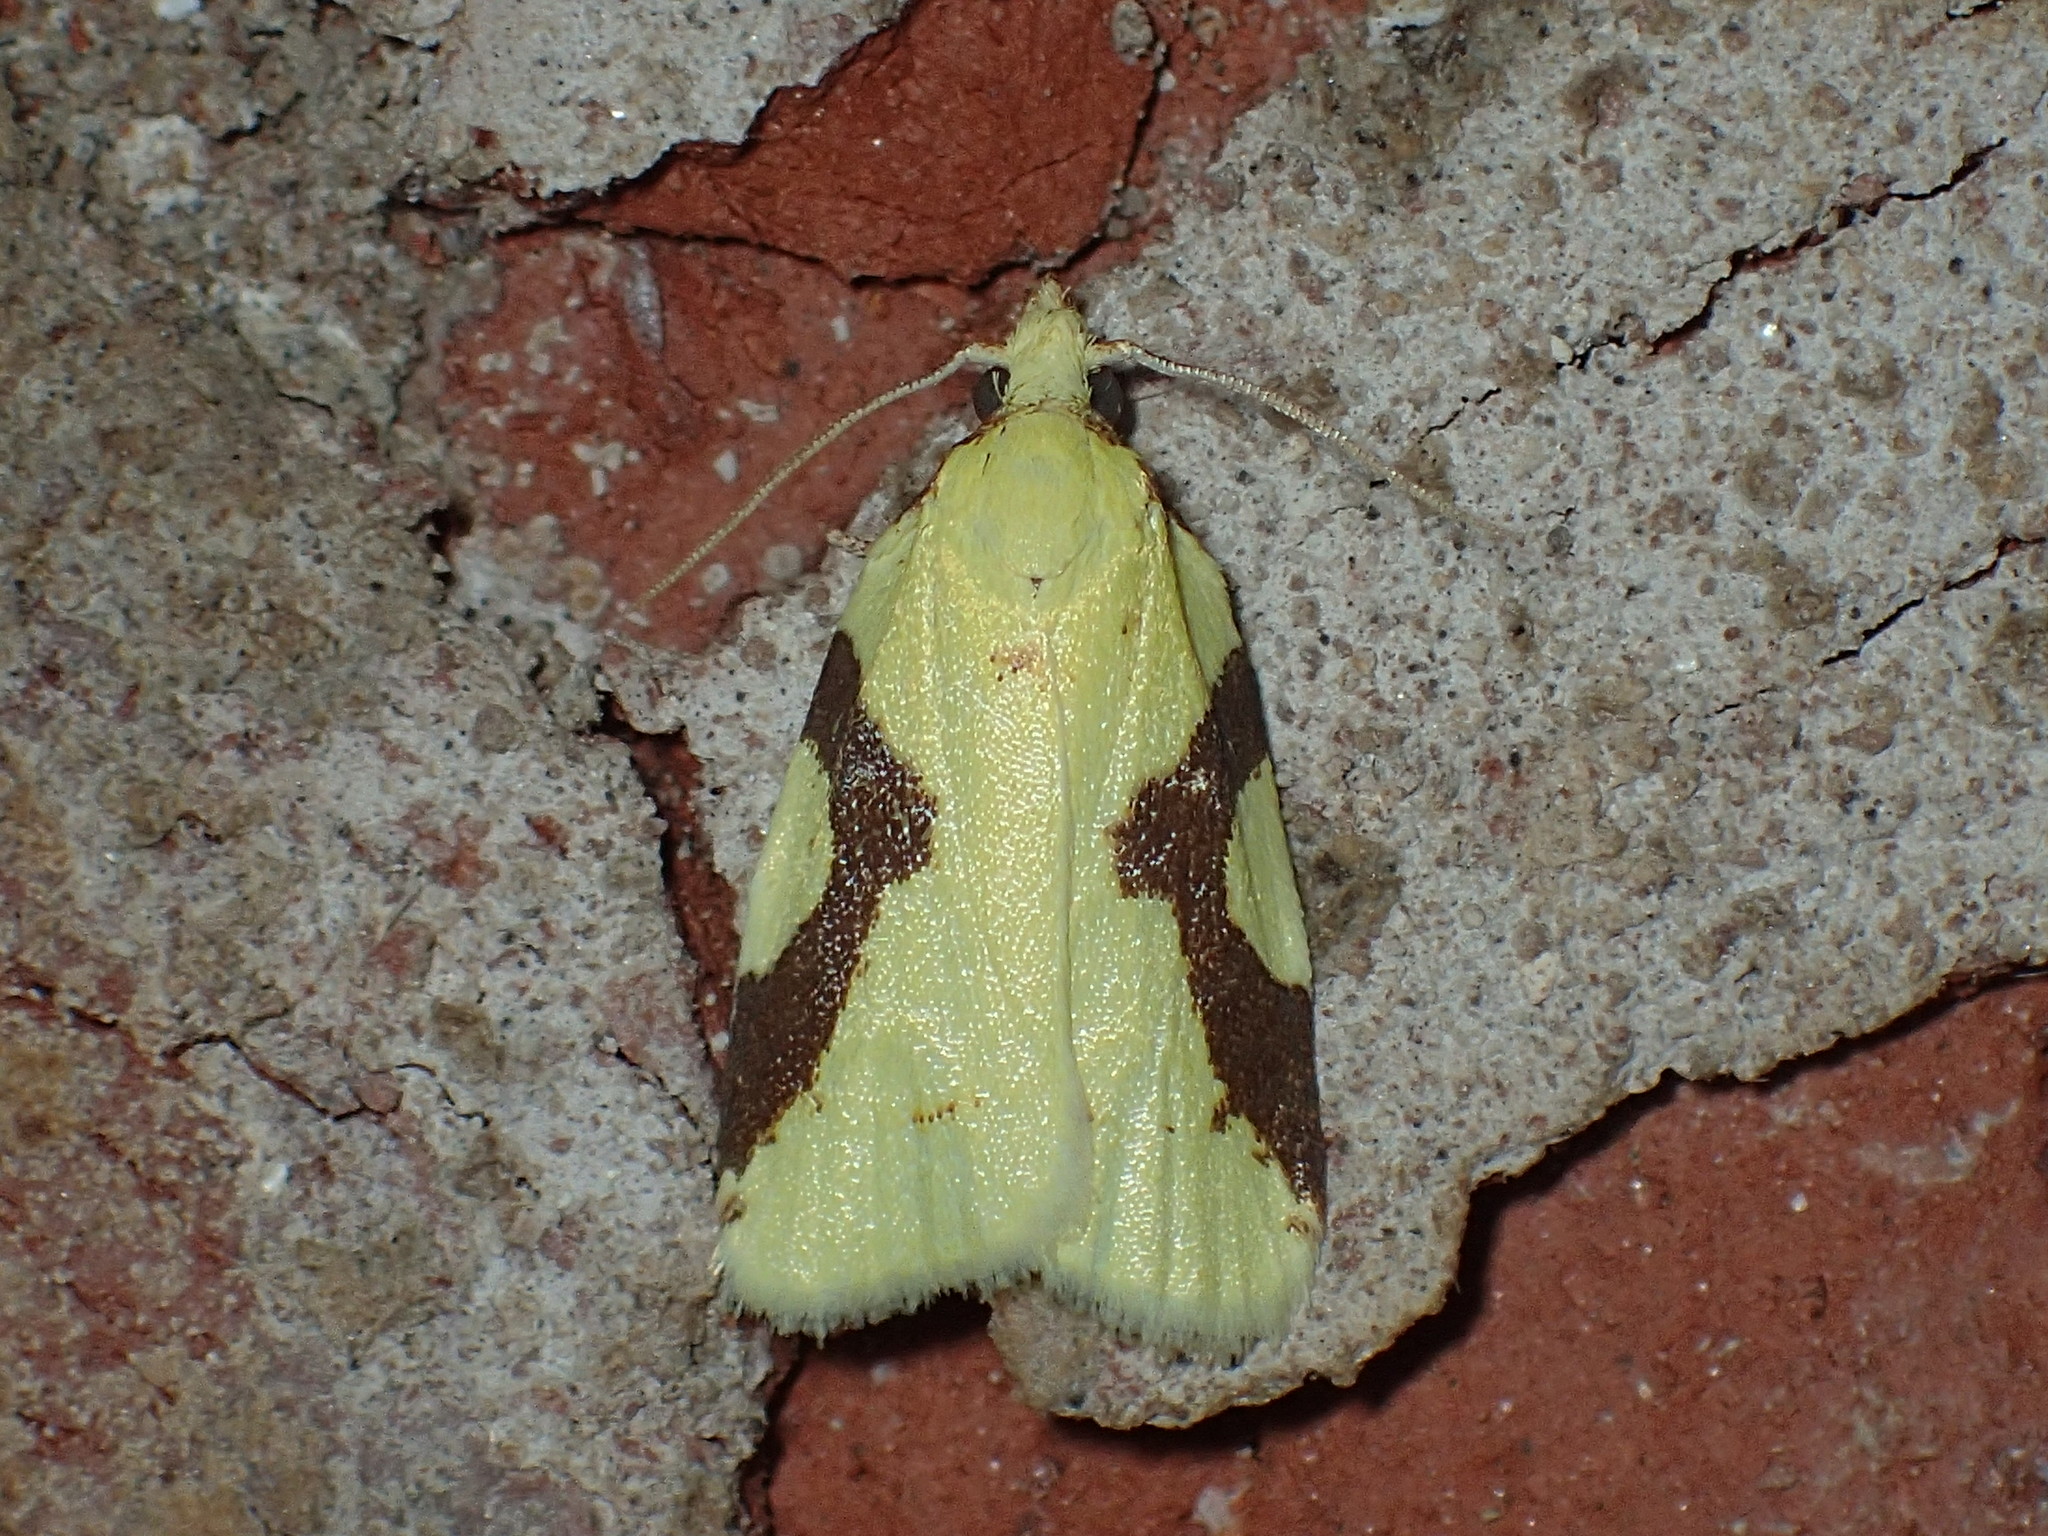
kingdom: Animalia
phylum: Arthropoda
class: Insecta
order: Lepidoptera
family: Tortricidae
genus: Cenopis
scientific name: Cenopis niveana
